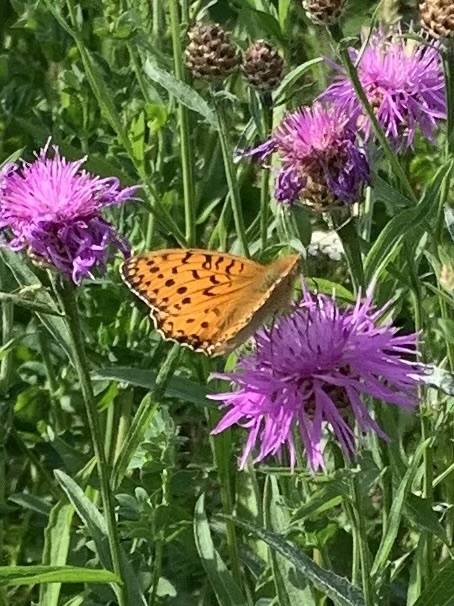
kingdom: Animalia
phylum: Arthropoda
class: Insecta
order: Lepidoptera
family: Nymphalidae
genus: Speyeria
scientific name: Speyeria aglaja
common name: Dark green fritillary
